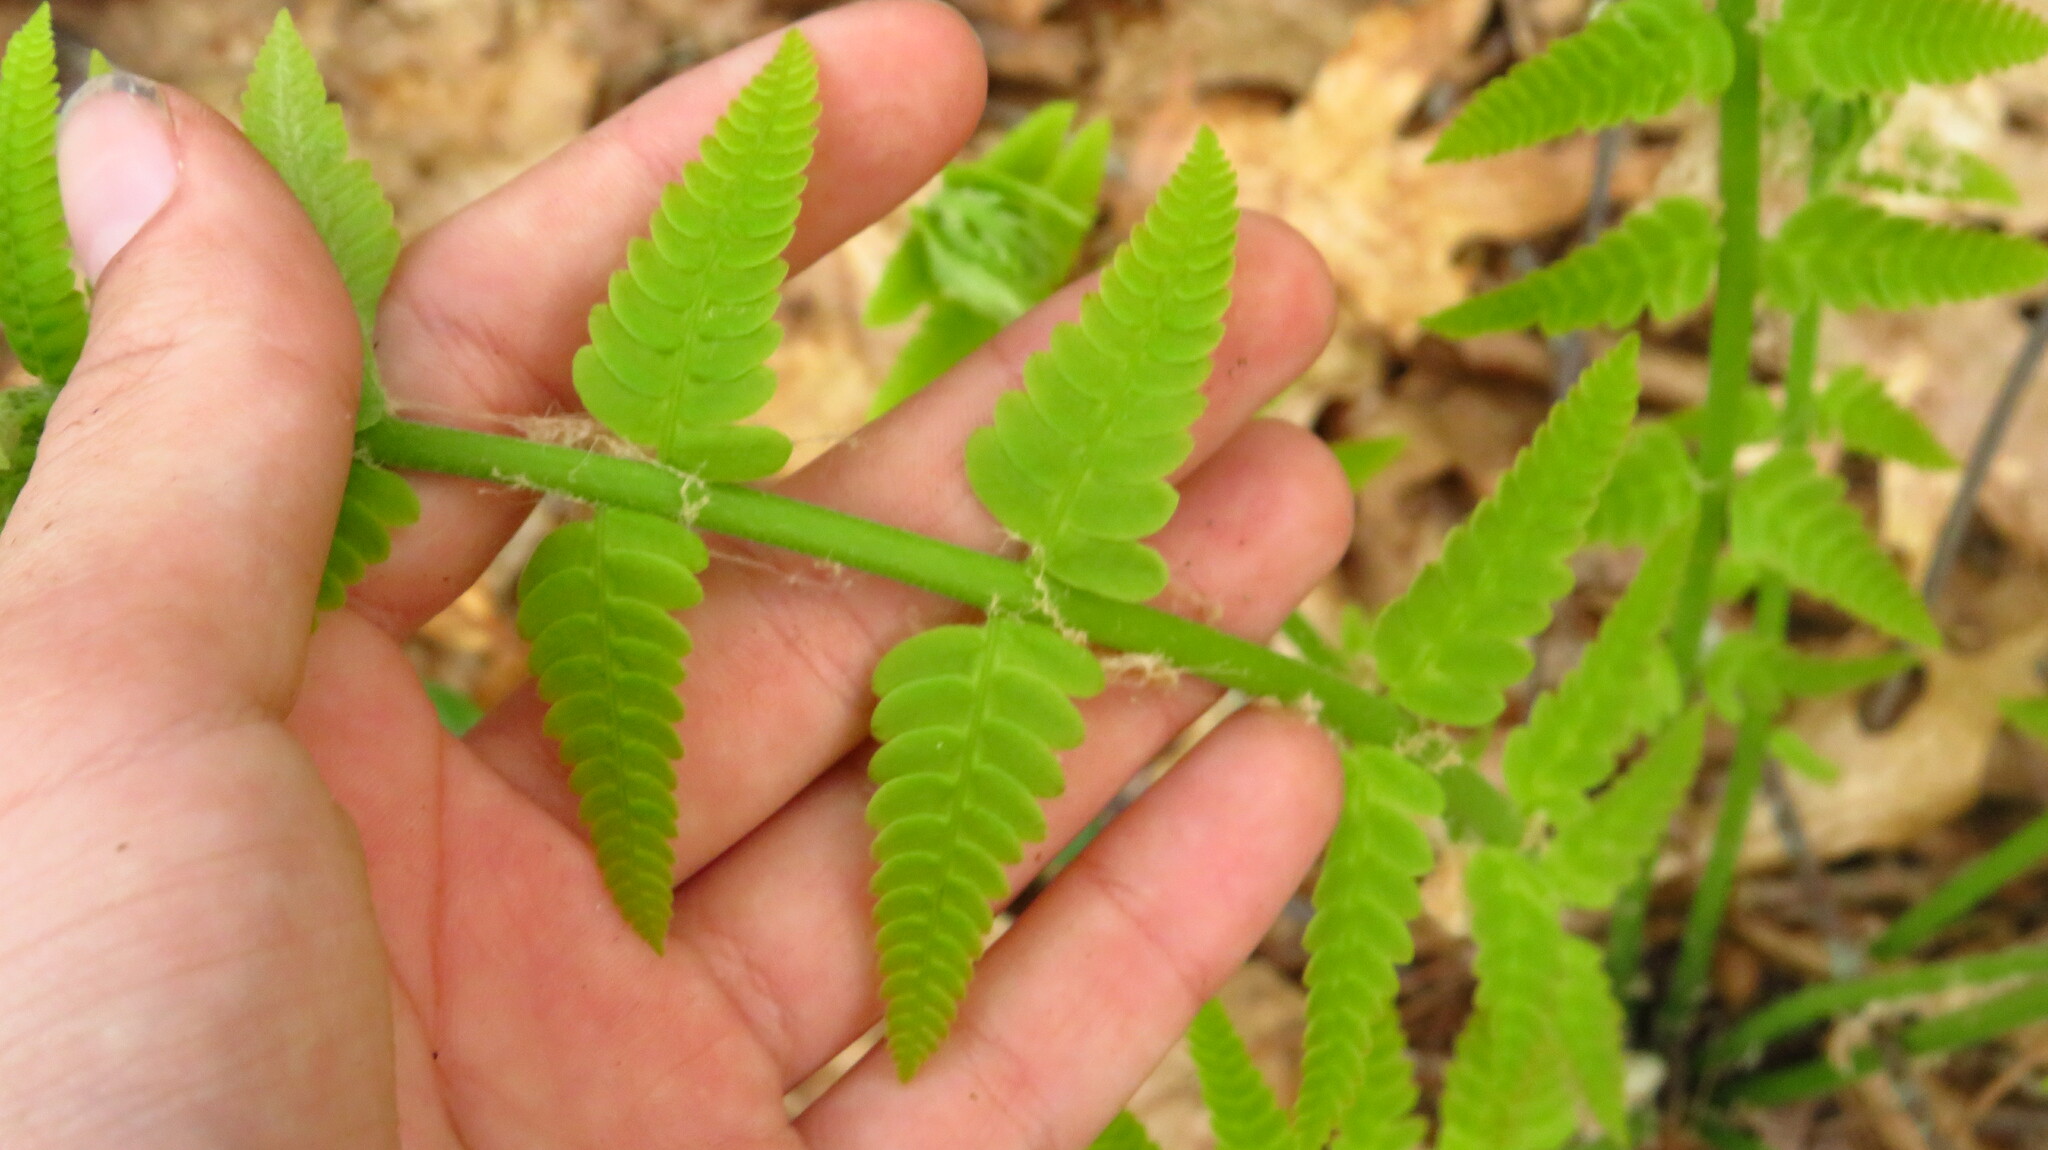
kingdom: Plantae
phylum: Tracheophyta
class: Polypodiopsida
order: Osmundales
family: Osmundaceae
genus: Claytosmunda
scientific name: Claytosmunda claytoniana
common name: Clayton's fern
